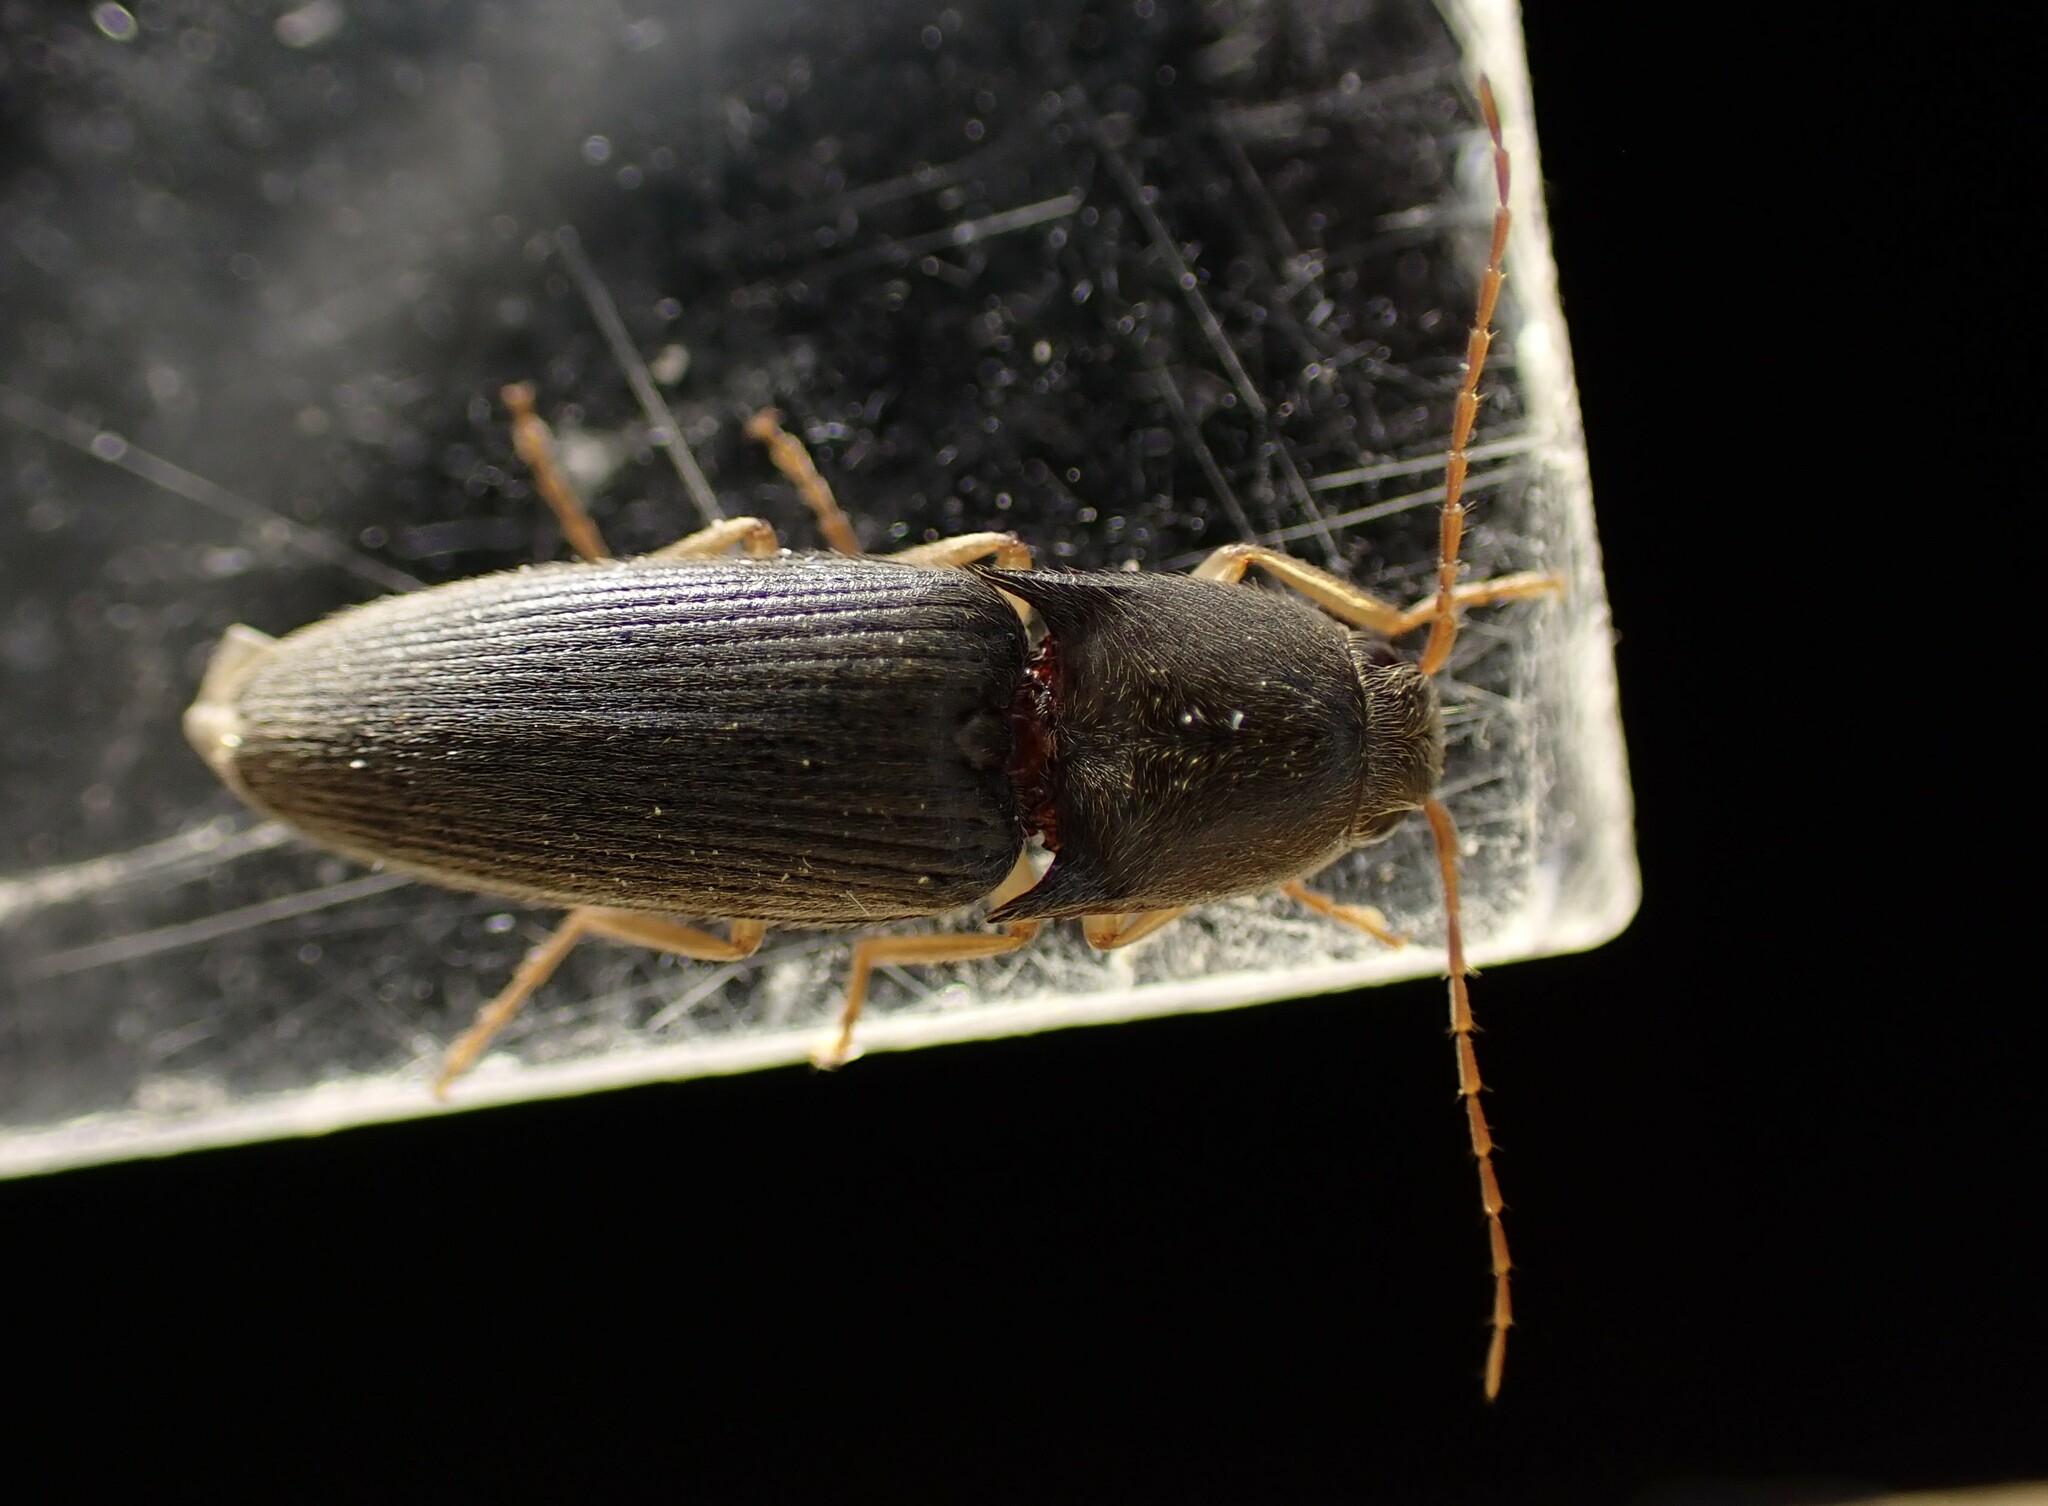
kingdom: Animalia
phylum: Arthropoda
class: Insecta
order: Coleoptera
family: Elateridae
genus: Conoderus
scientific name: Conoderus exsul
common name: Click beetle
